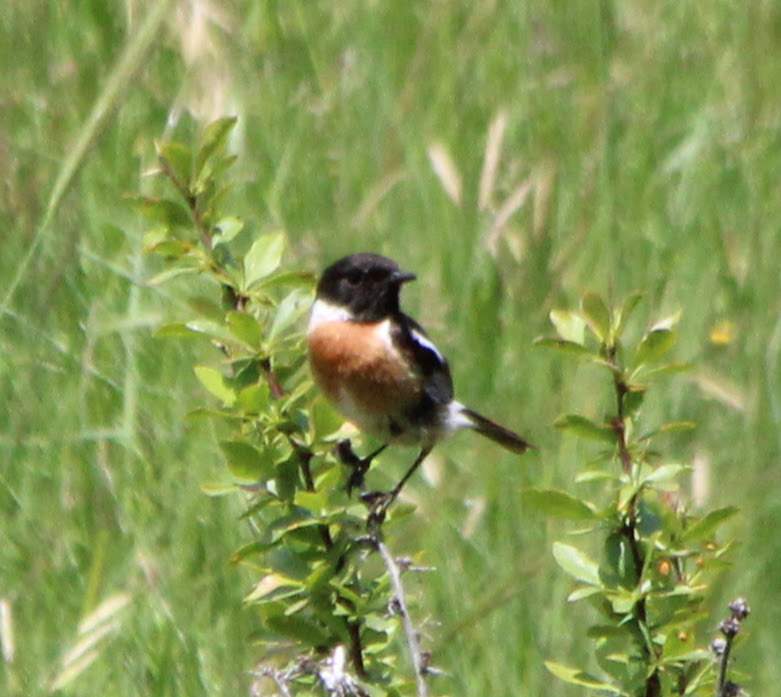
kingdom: Animalia
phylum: Chordata
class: Aves
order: Passeriformes
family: Muscicapidae
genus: Saxicola
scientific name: Saxicola rubicola
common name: European stonechat
